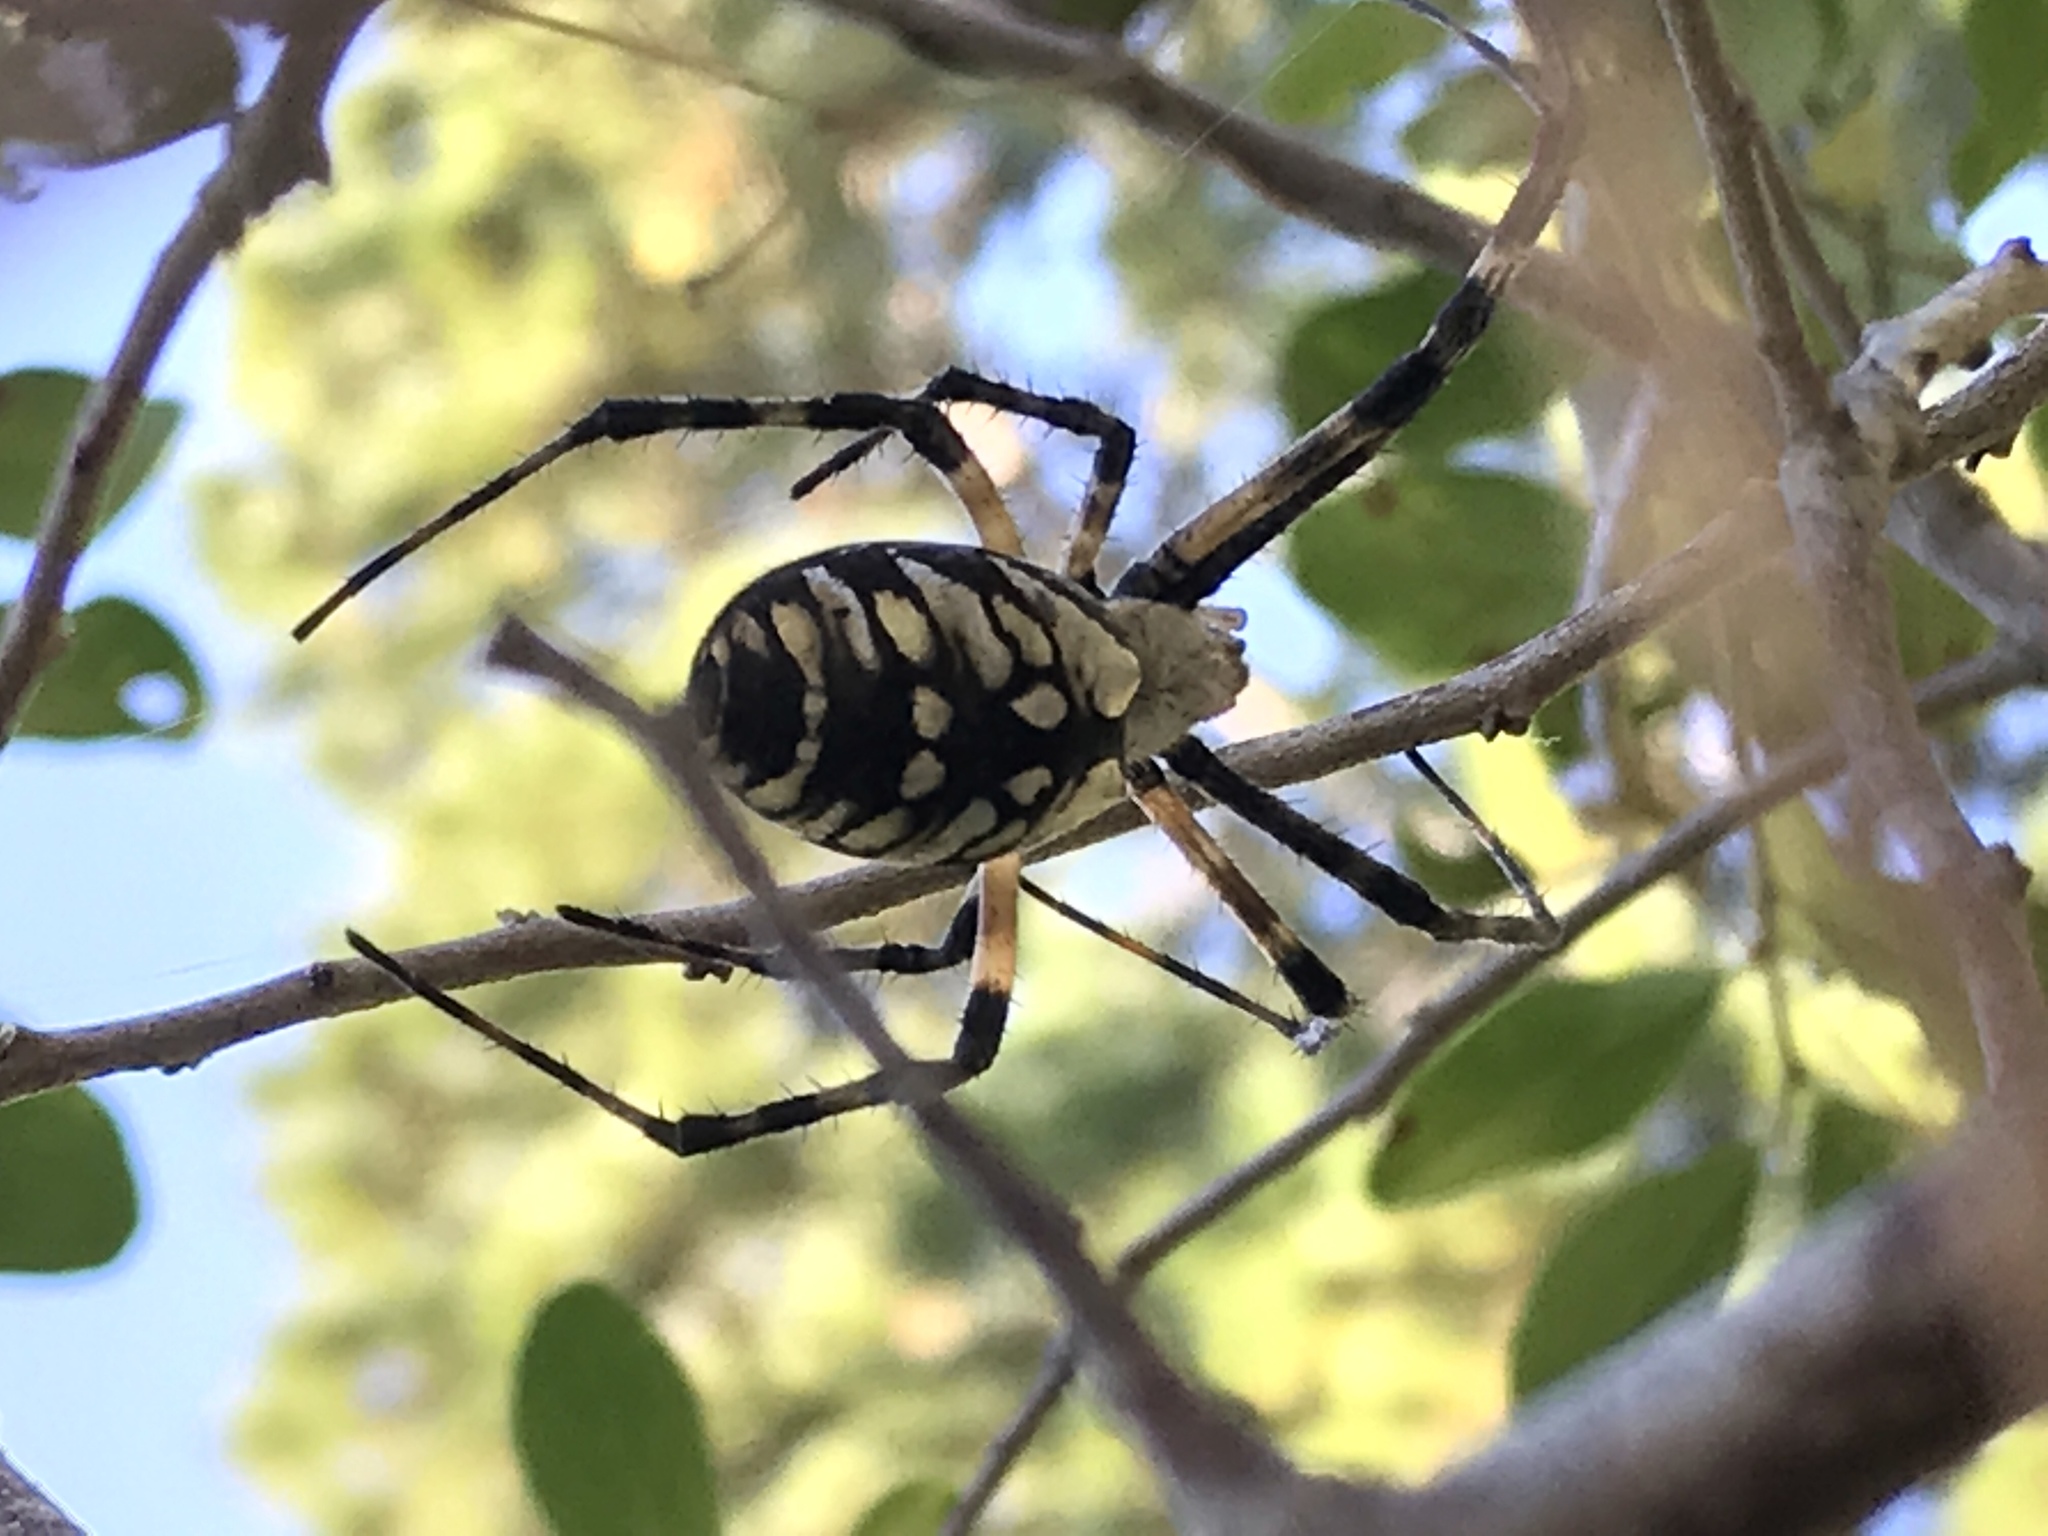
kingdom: Animalia
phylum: Arthropoda
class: Arachnida
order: Araneae
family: Araneidae
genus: Argiope
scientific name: Argiope aurantia
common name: Orb weavers
